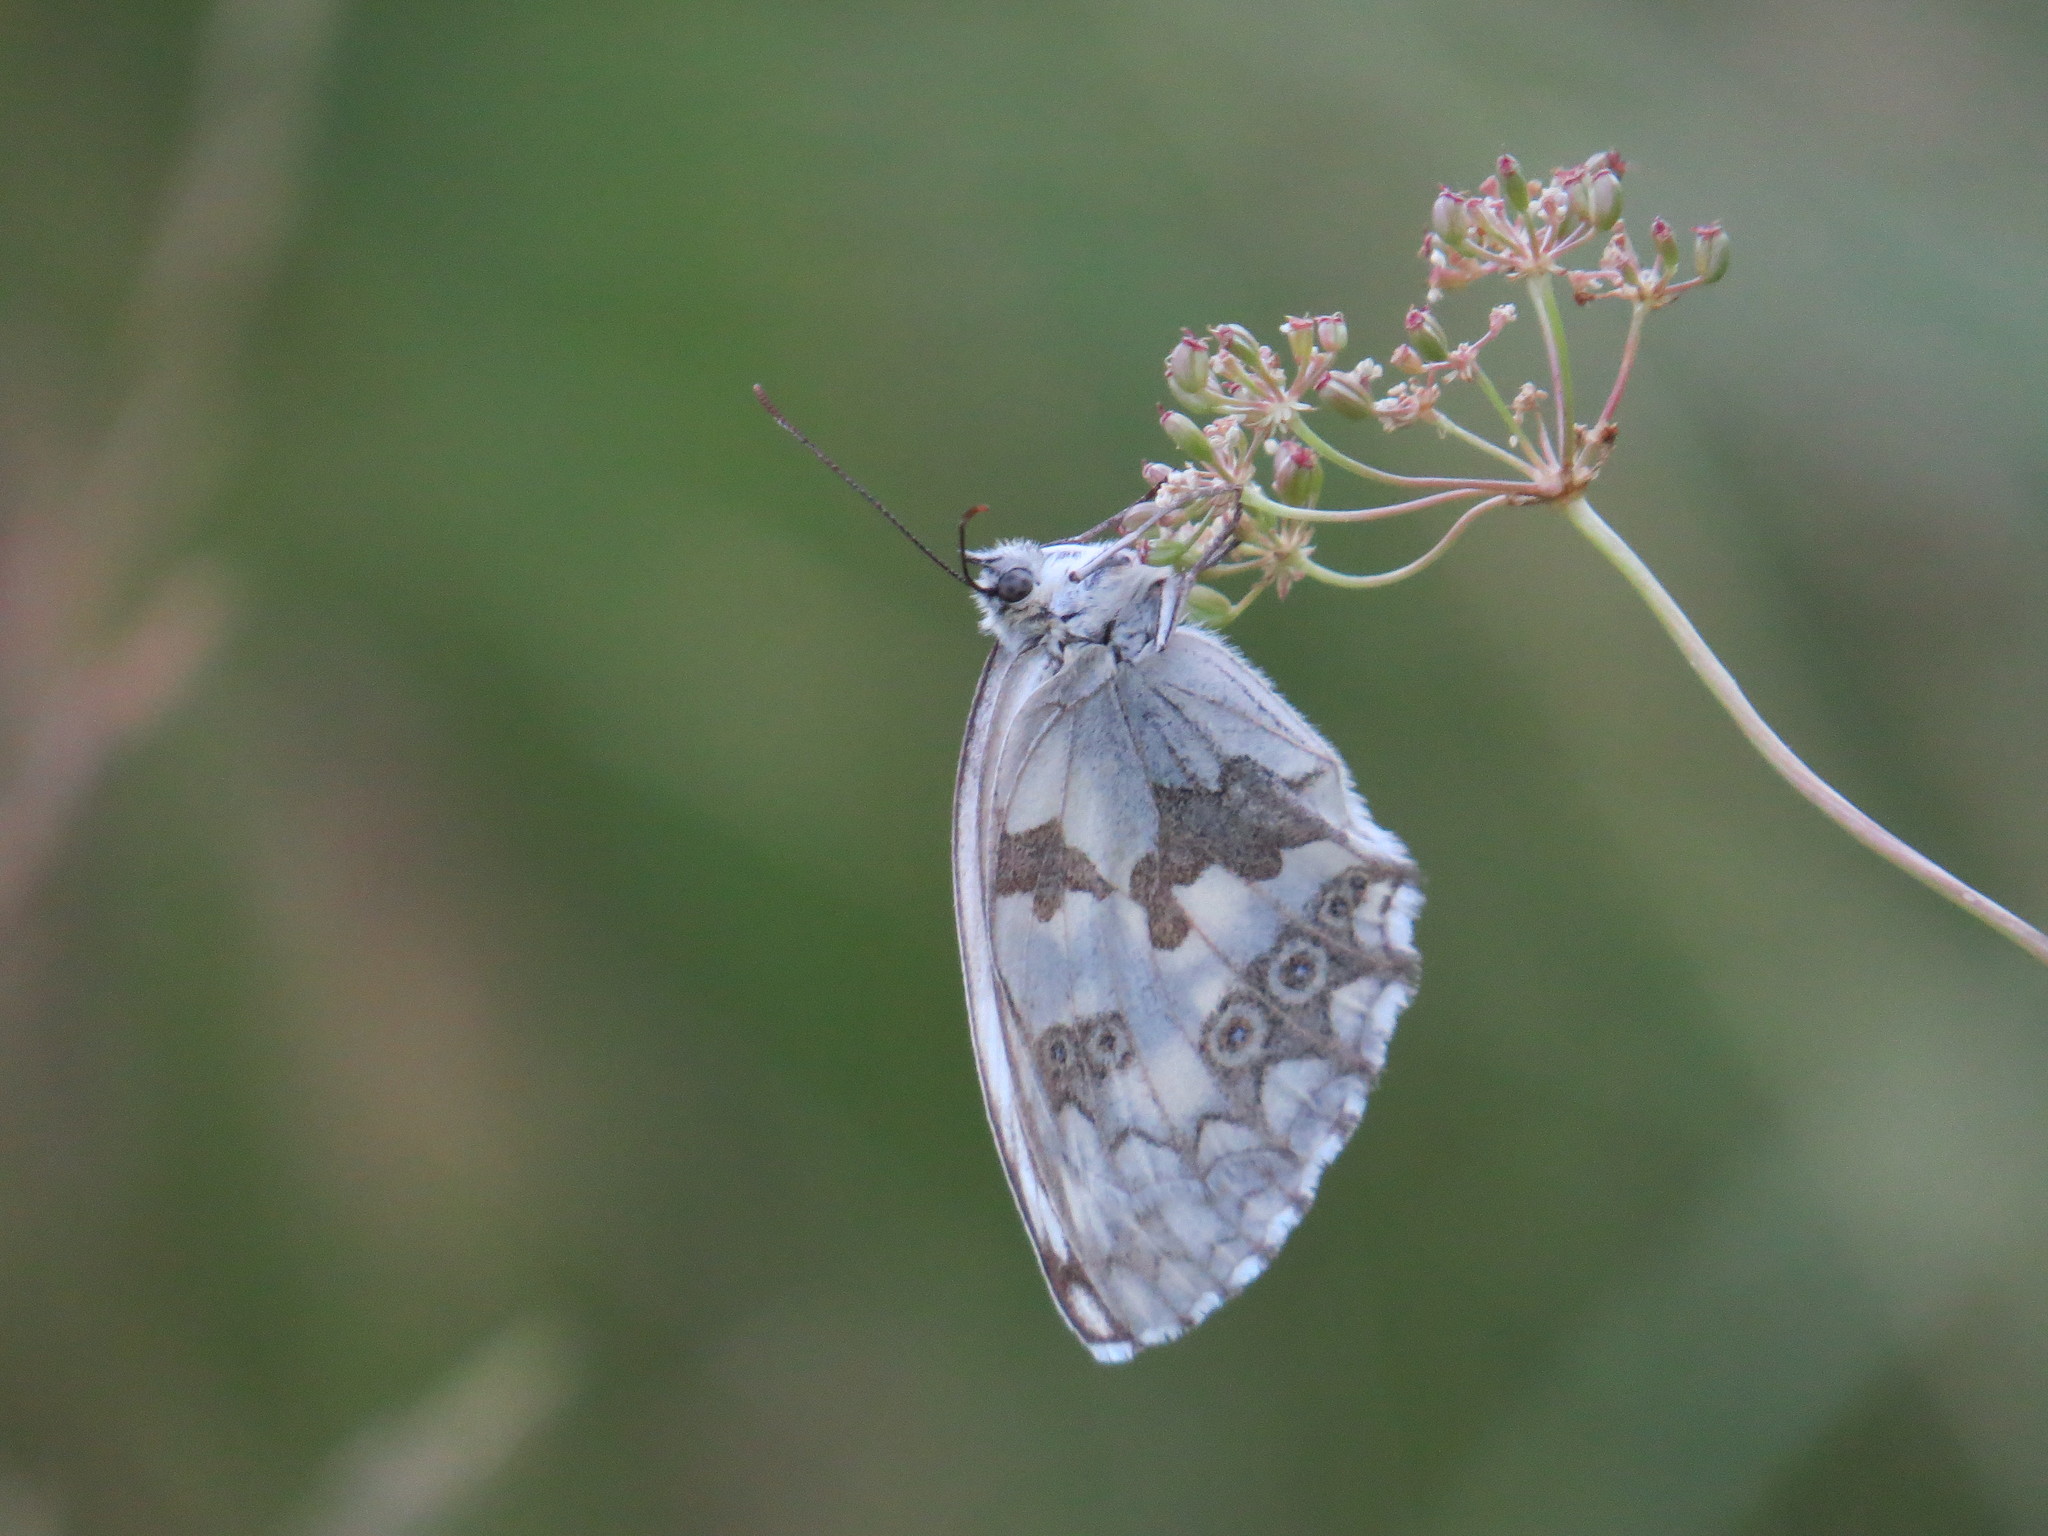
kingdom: Animalia
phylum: Arthropoda
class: Insecta
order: Lepidoptera
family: Nymphalidae
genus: Melanargia
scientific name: Melanargia lachesis
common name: Iberian marbled white
